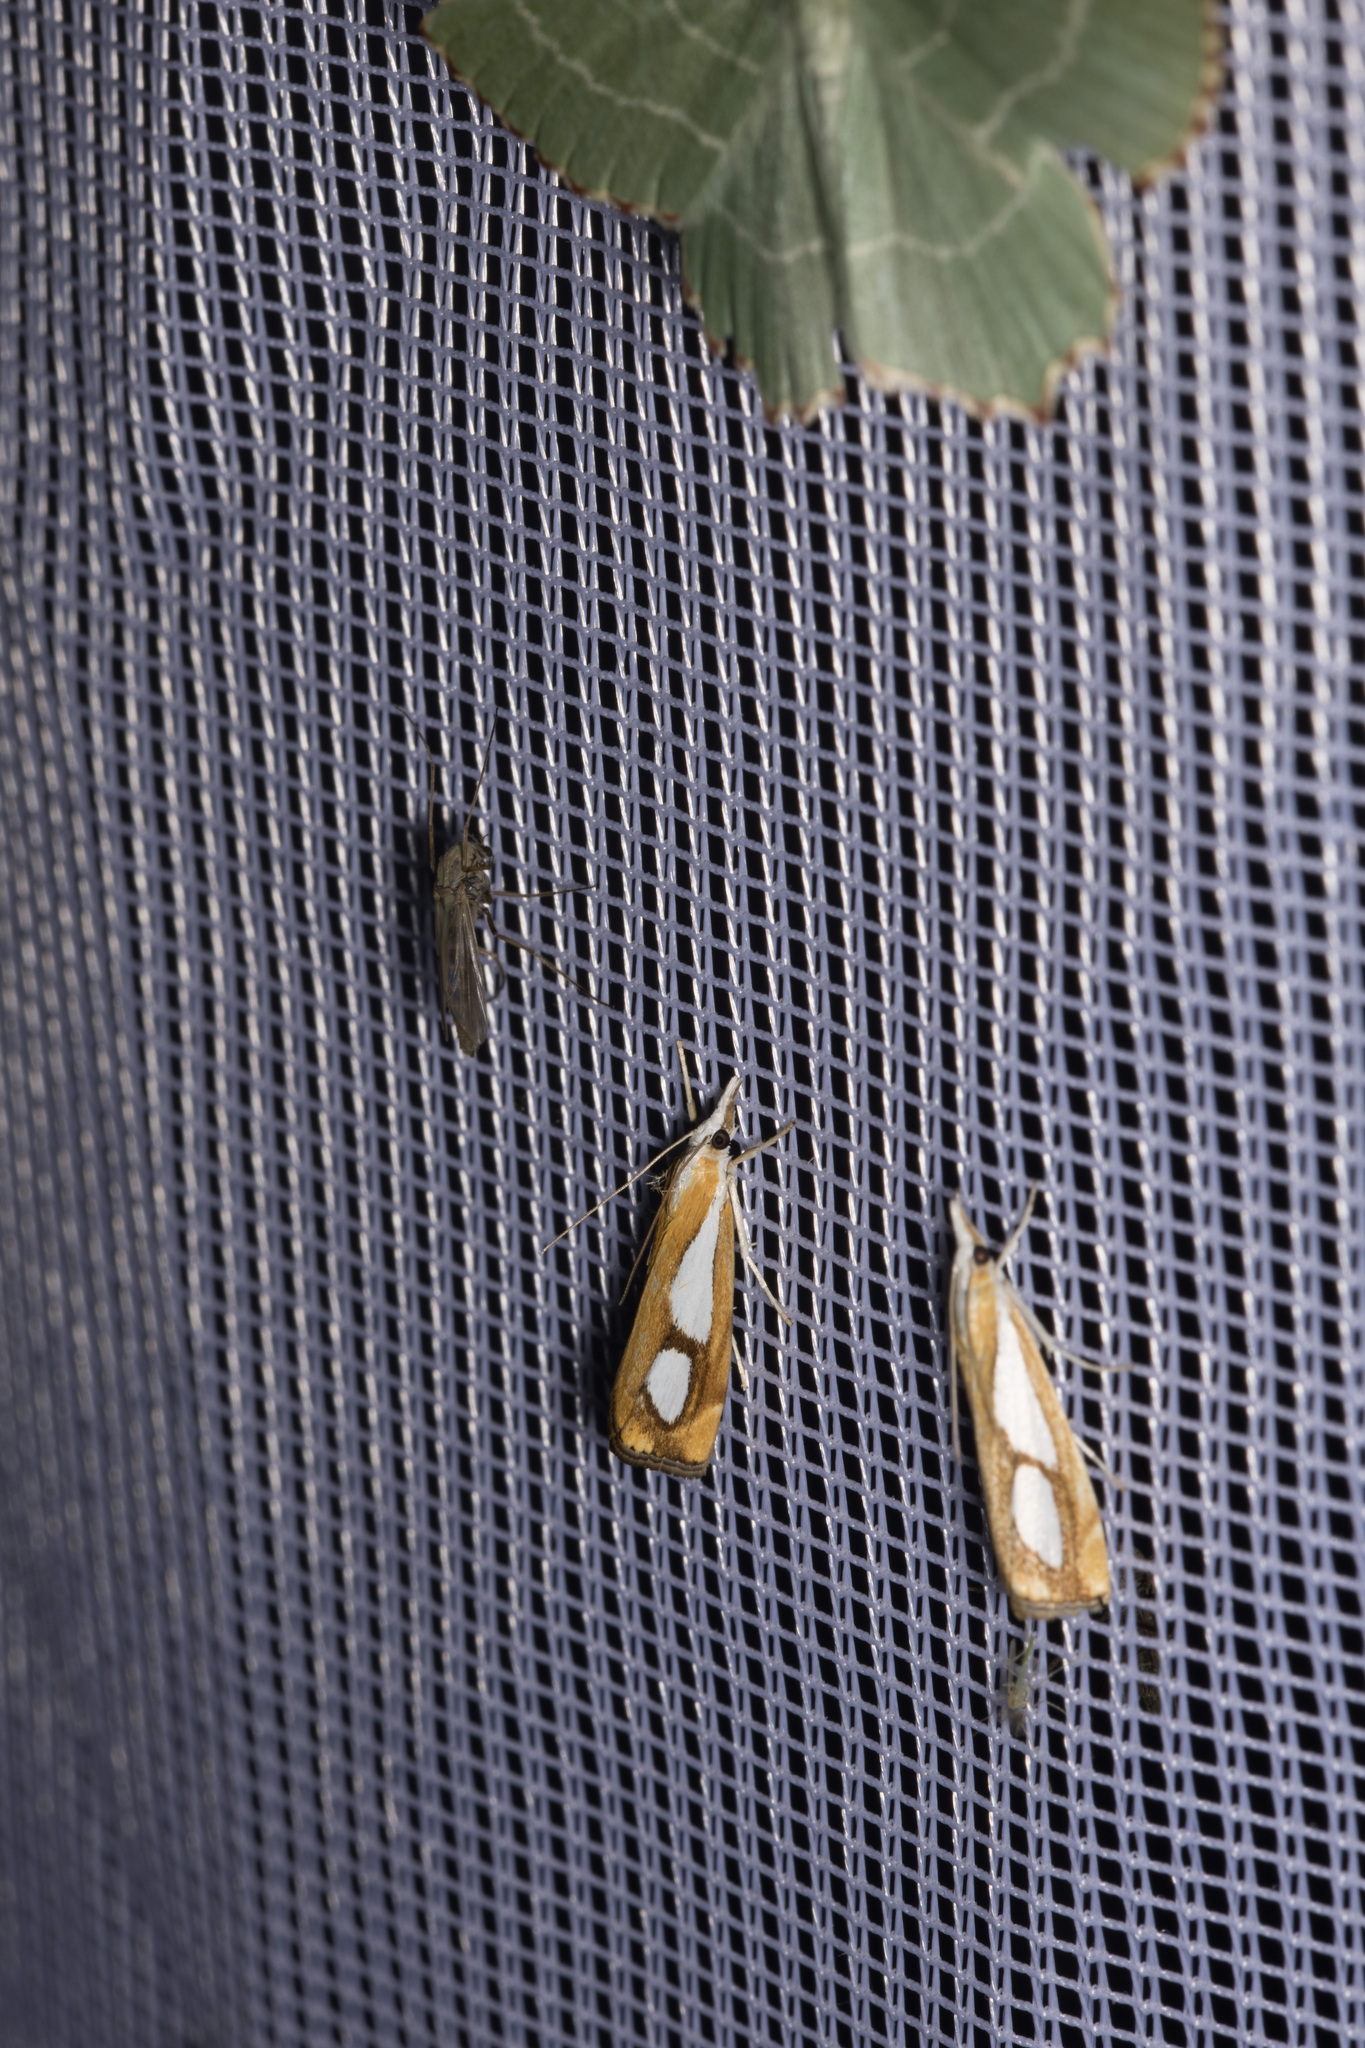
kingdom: Animalia
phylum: Arthropoda
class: Insecta
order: Lepidoptera
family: Crambidae
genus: Catoptria
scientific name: Catoptria pinella
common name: Pearl grass-veneer
